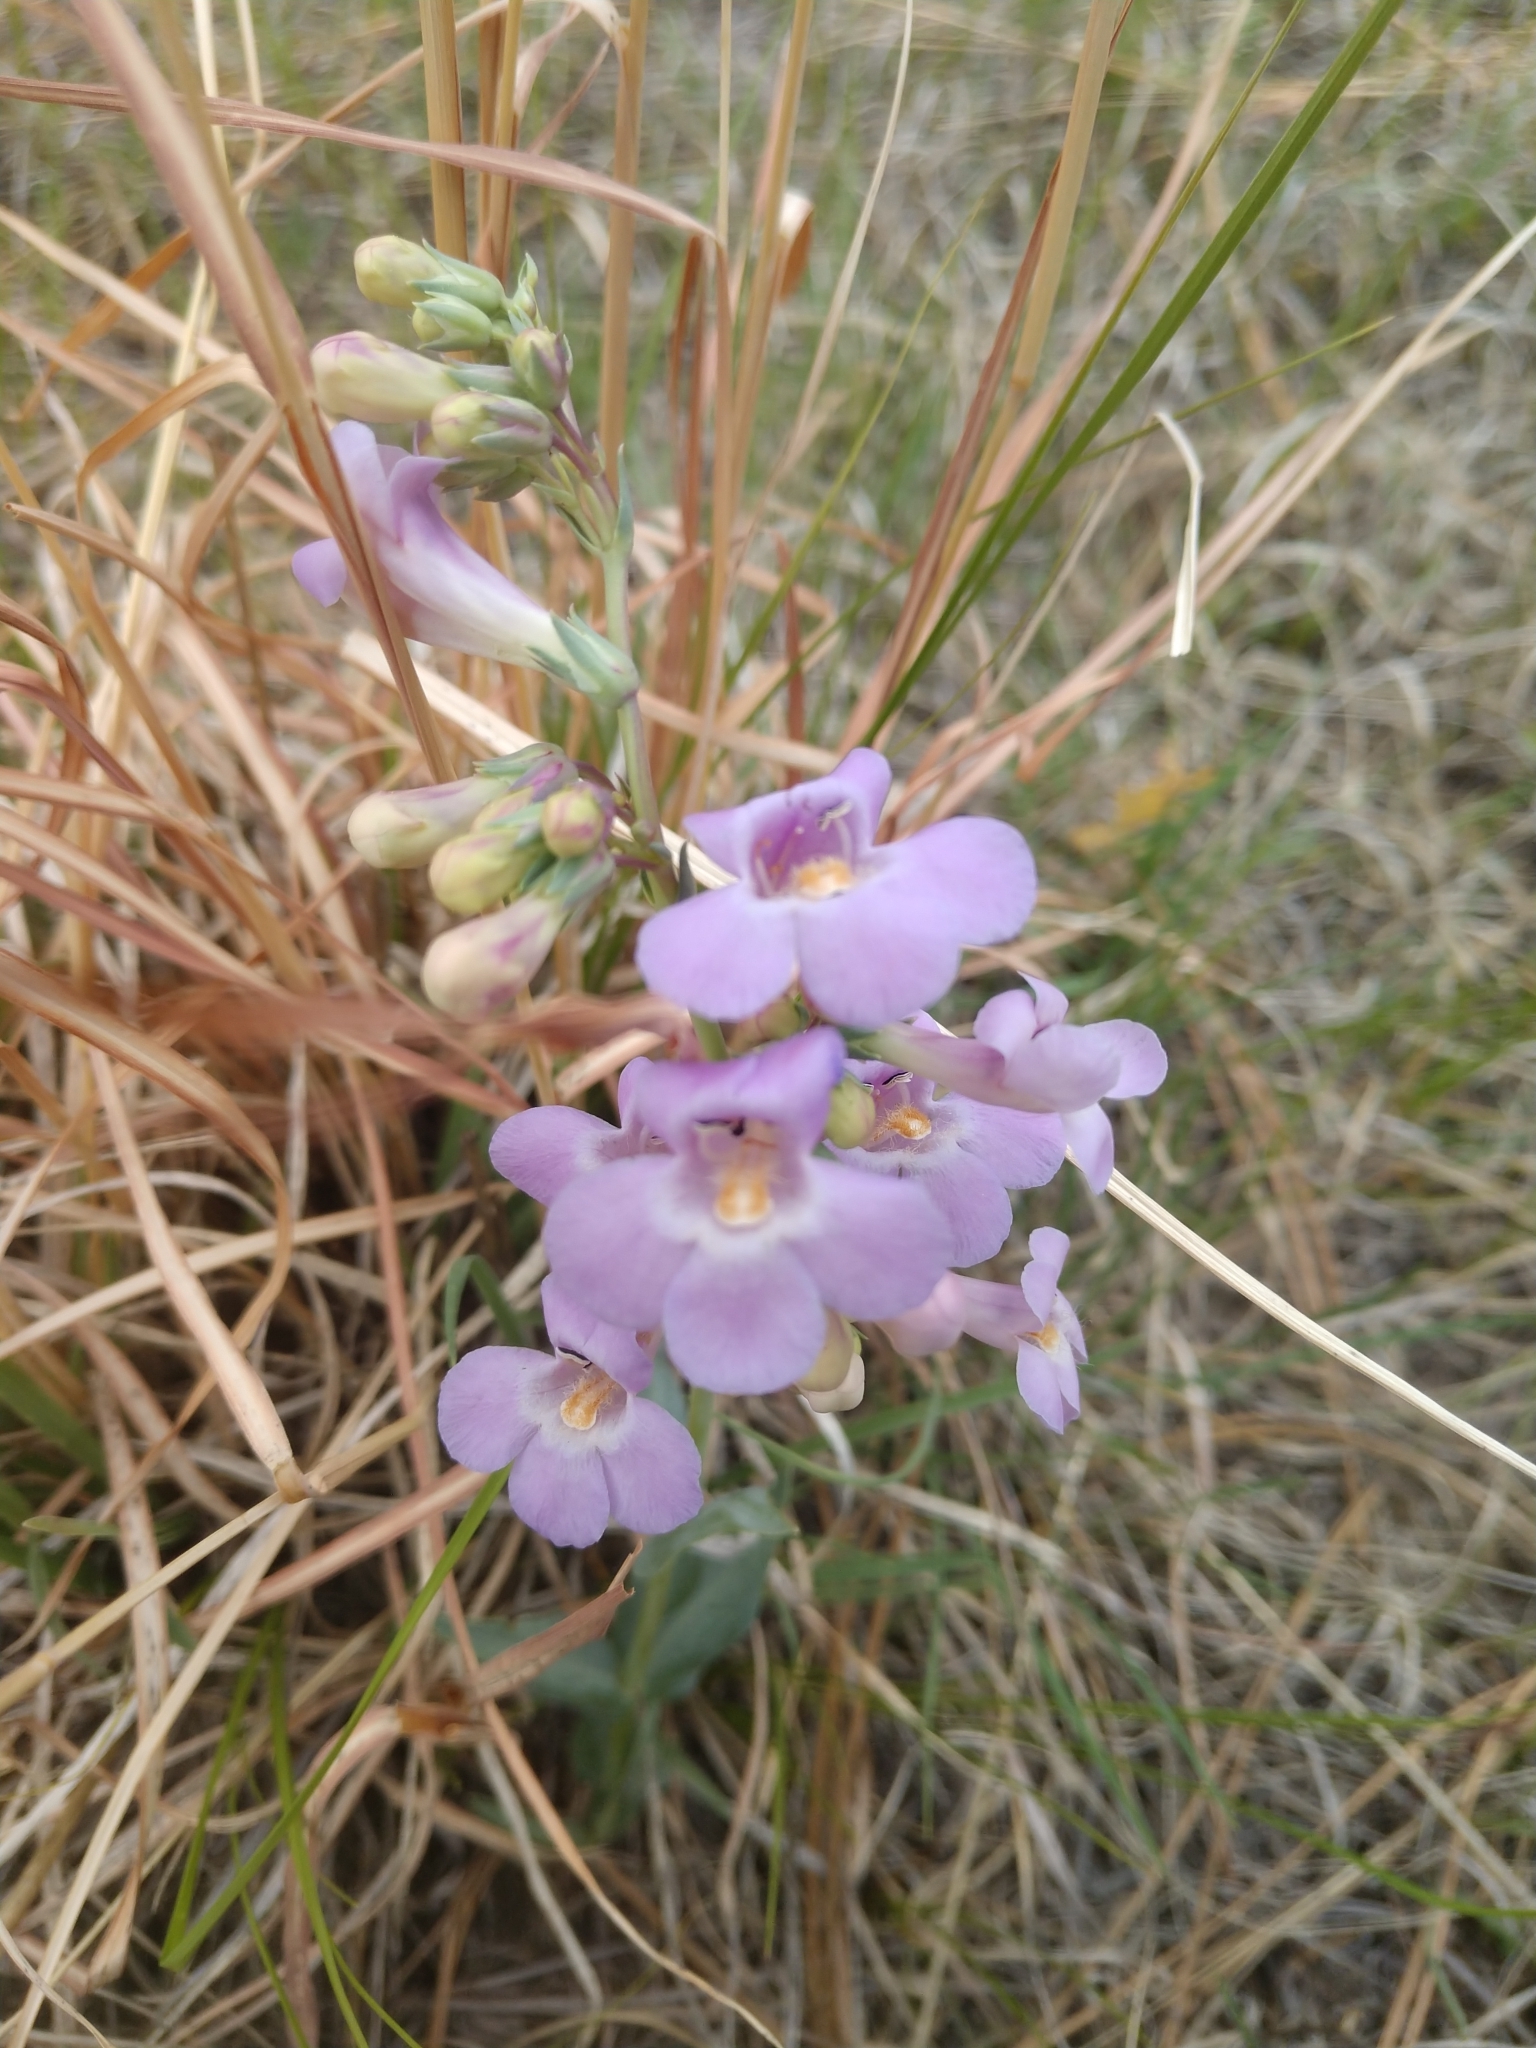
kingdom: Plantae
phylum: Tracheophyta
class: Magnoliopsida
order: Lamiales
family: Plantaginaceae
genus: Penstemon
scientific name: Penstemon secundiflorus
